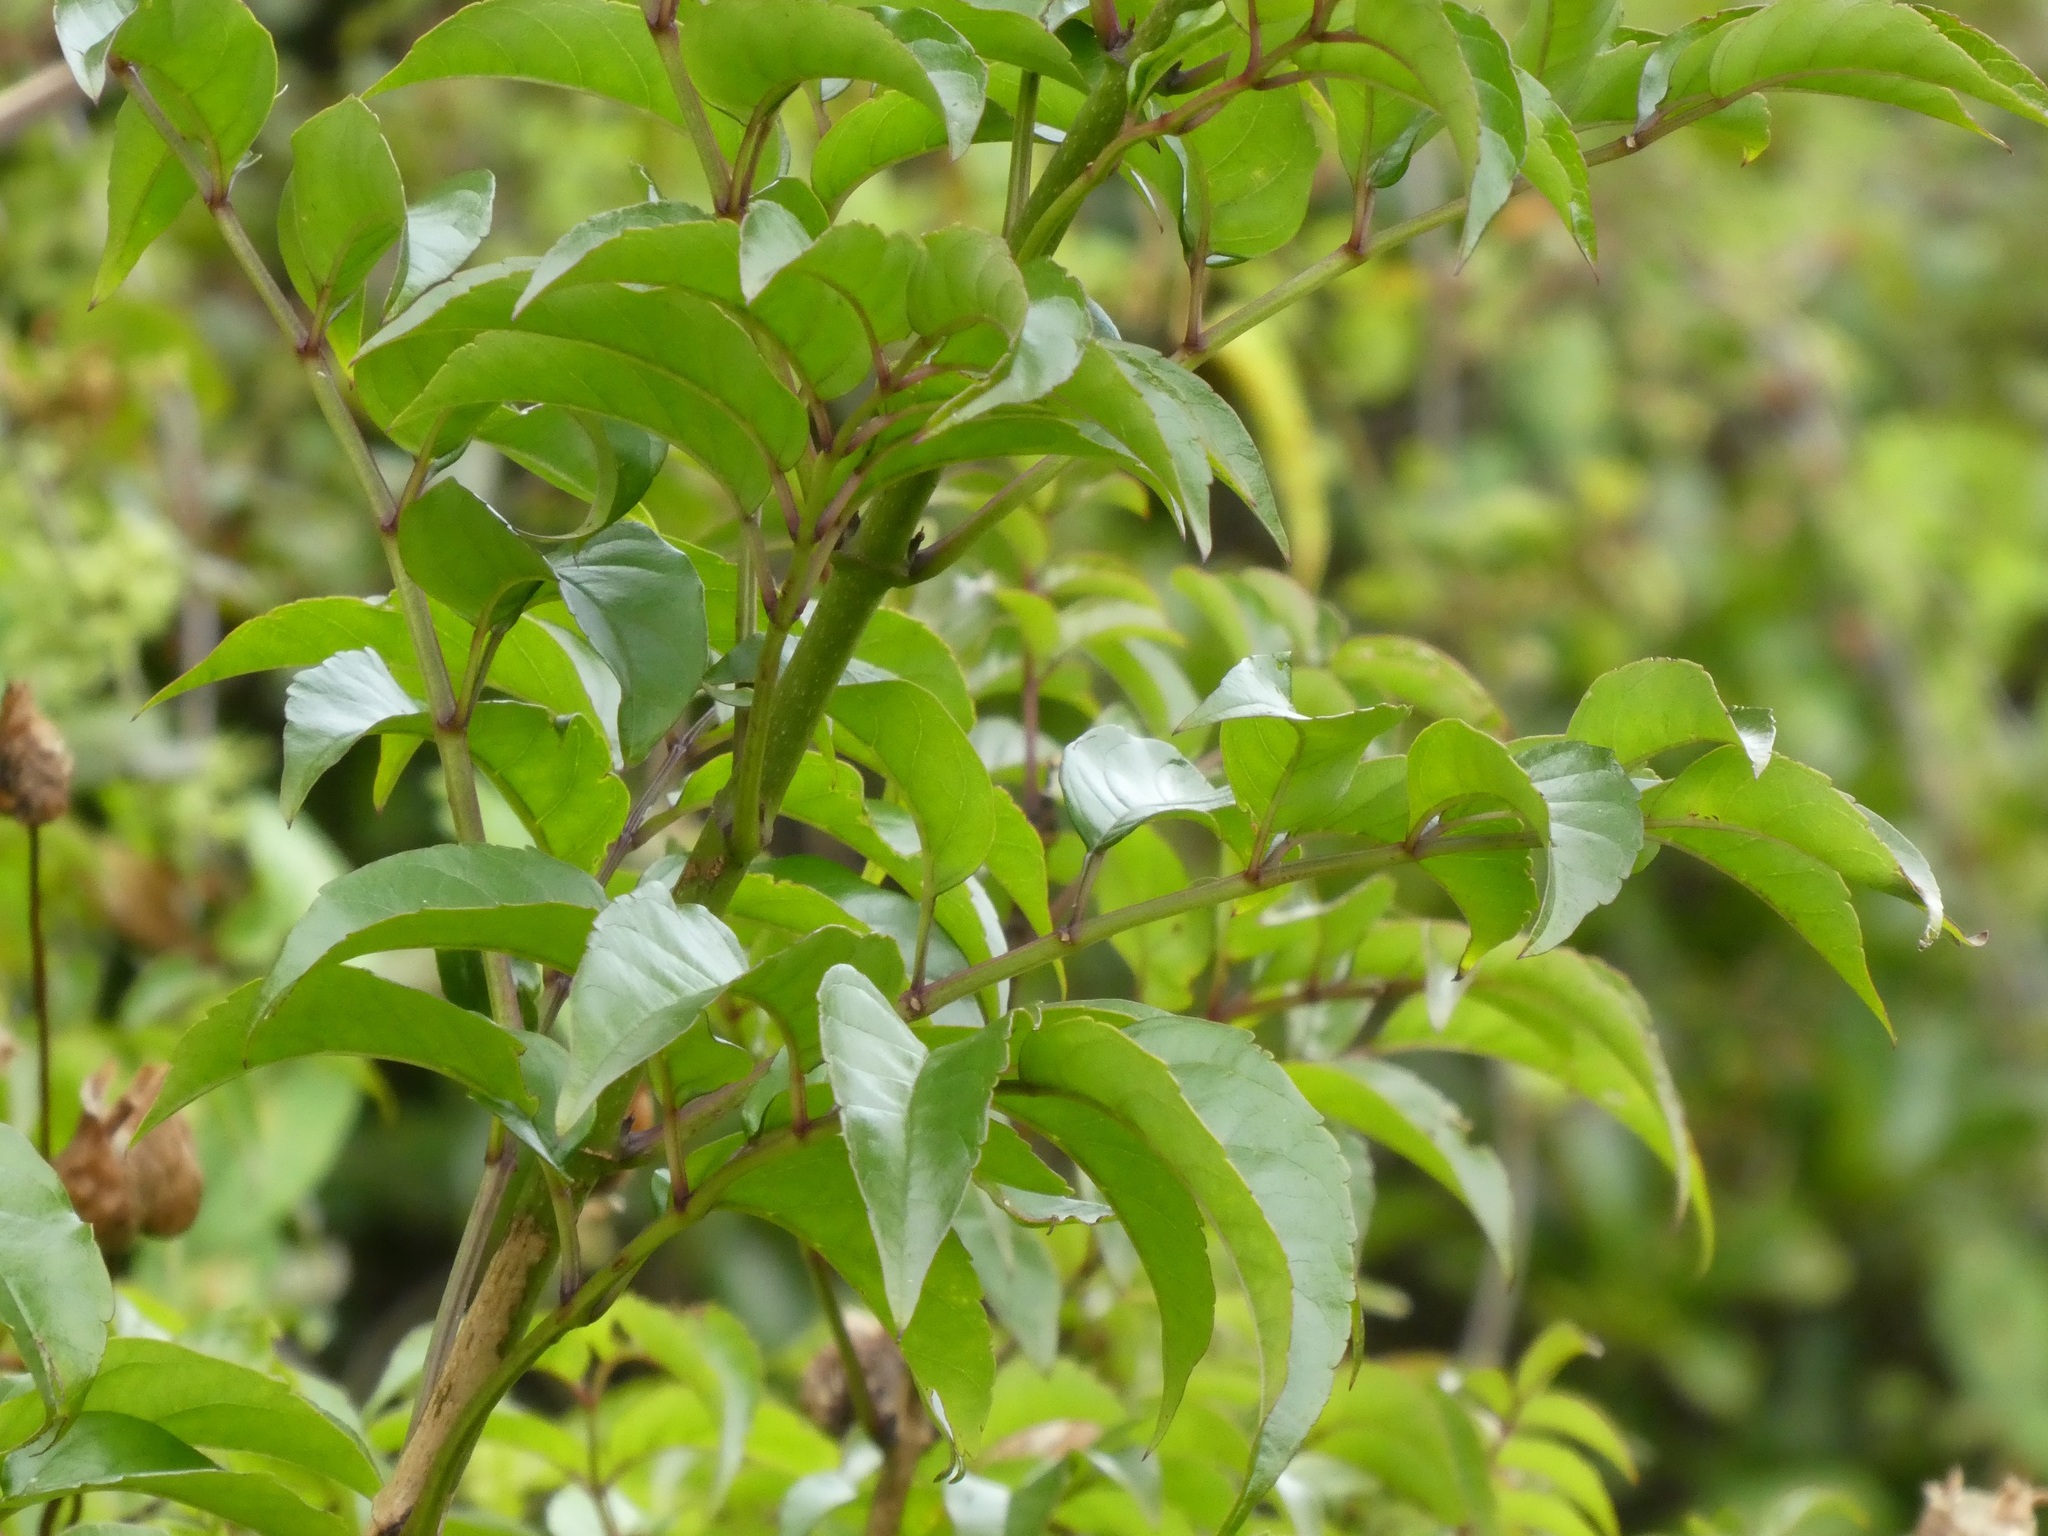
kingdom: Plantae
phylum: Tracheophyta
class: Magnoliopsida
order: Lamiales
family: Bignoniaceae
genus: Podranea
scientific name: Podranea ricasoliana
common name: Zimbabwe creeper
